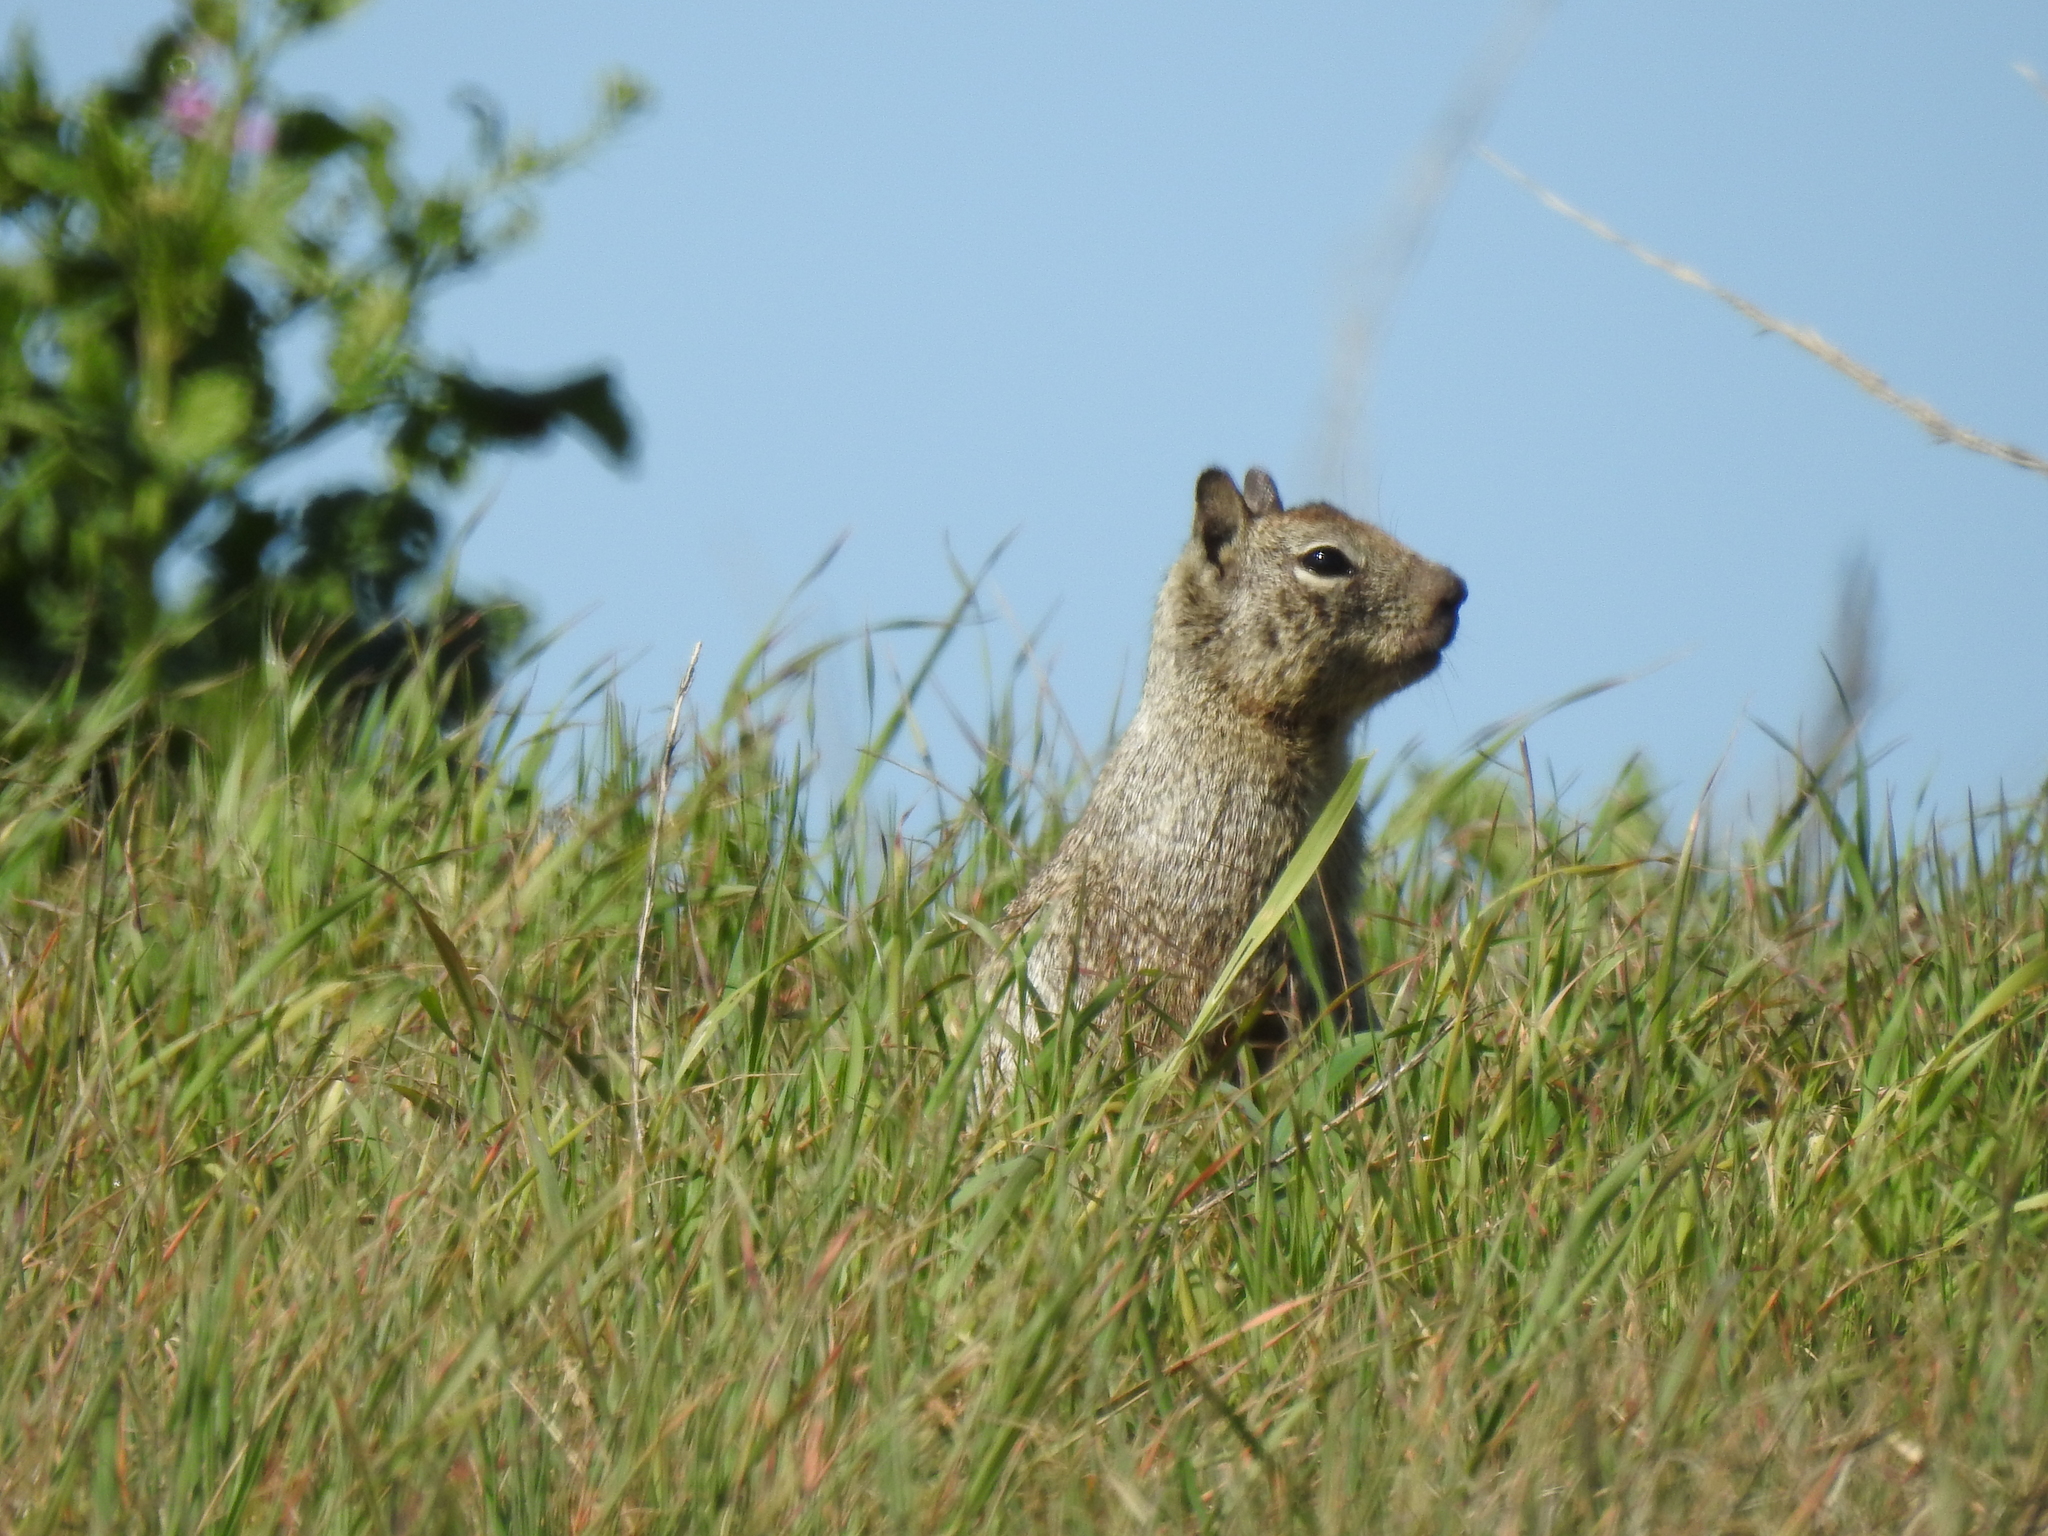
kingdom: Animalia
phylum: Chordata
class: Mammalia
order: Rodentia
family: Sciuridae
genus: Otospermophilus
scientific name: Otospermophilus beecheyi
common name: California ground squirrel
